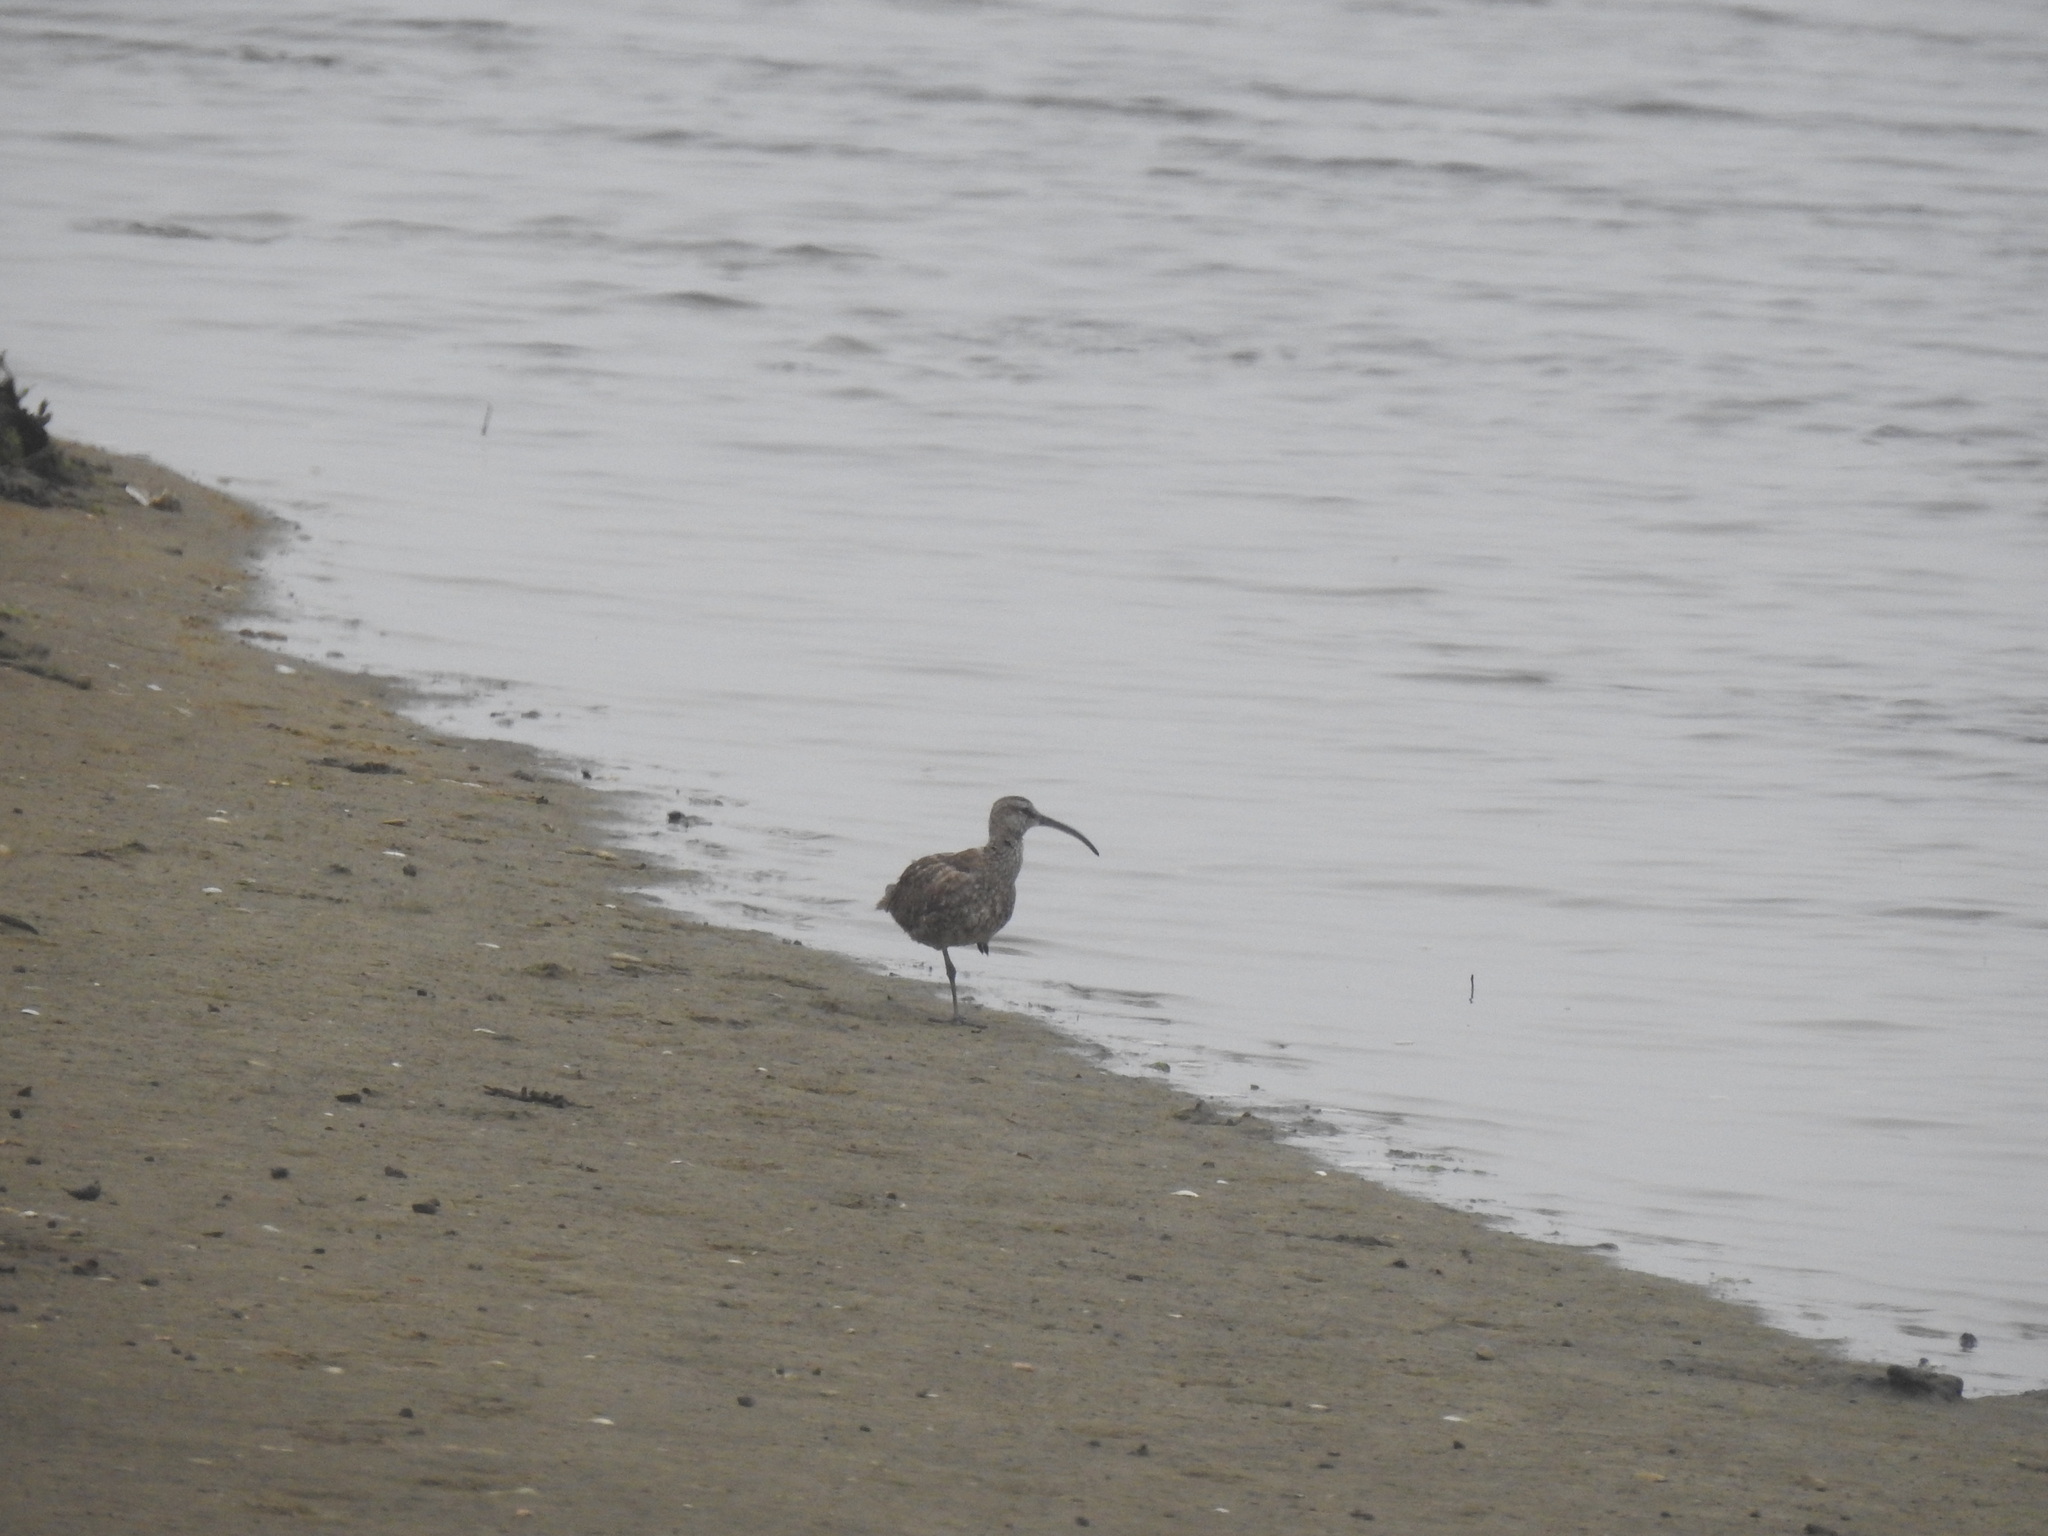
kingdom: Animalia
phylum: Chordata
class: Aves
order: Charadriiformes
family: Scolopacidae
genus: Numenius
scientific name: Numenius phaeopus
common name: Whimbrel
